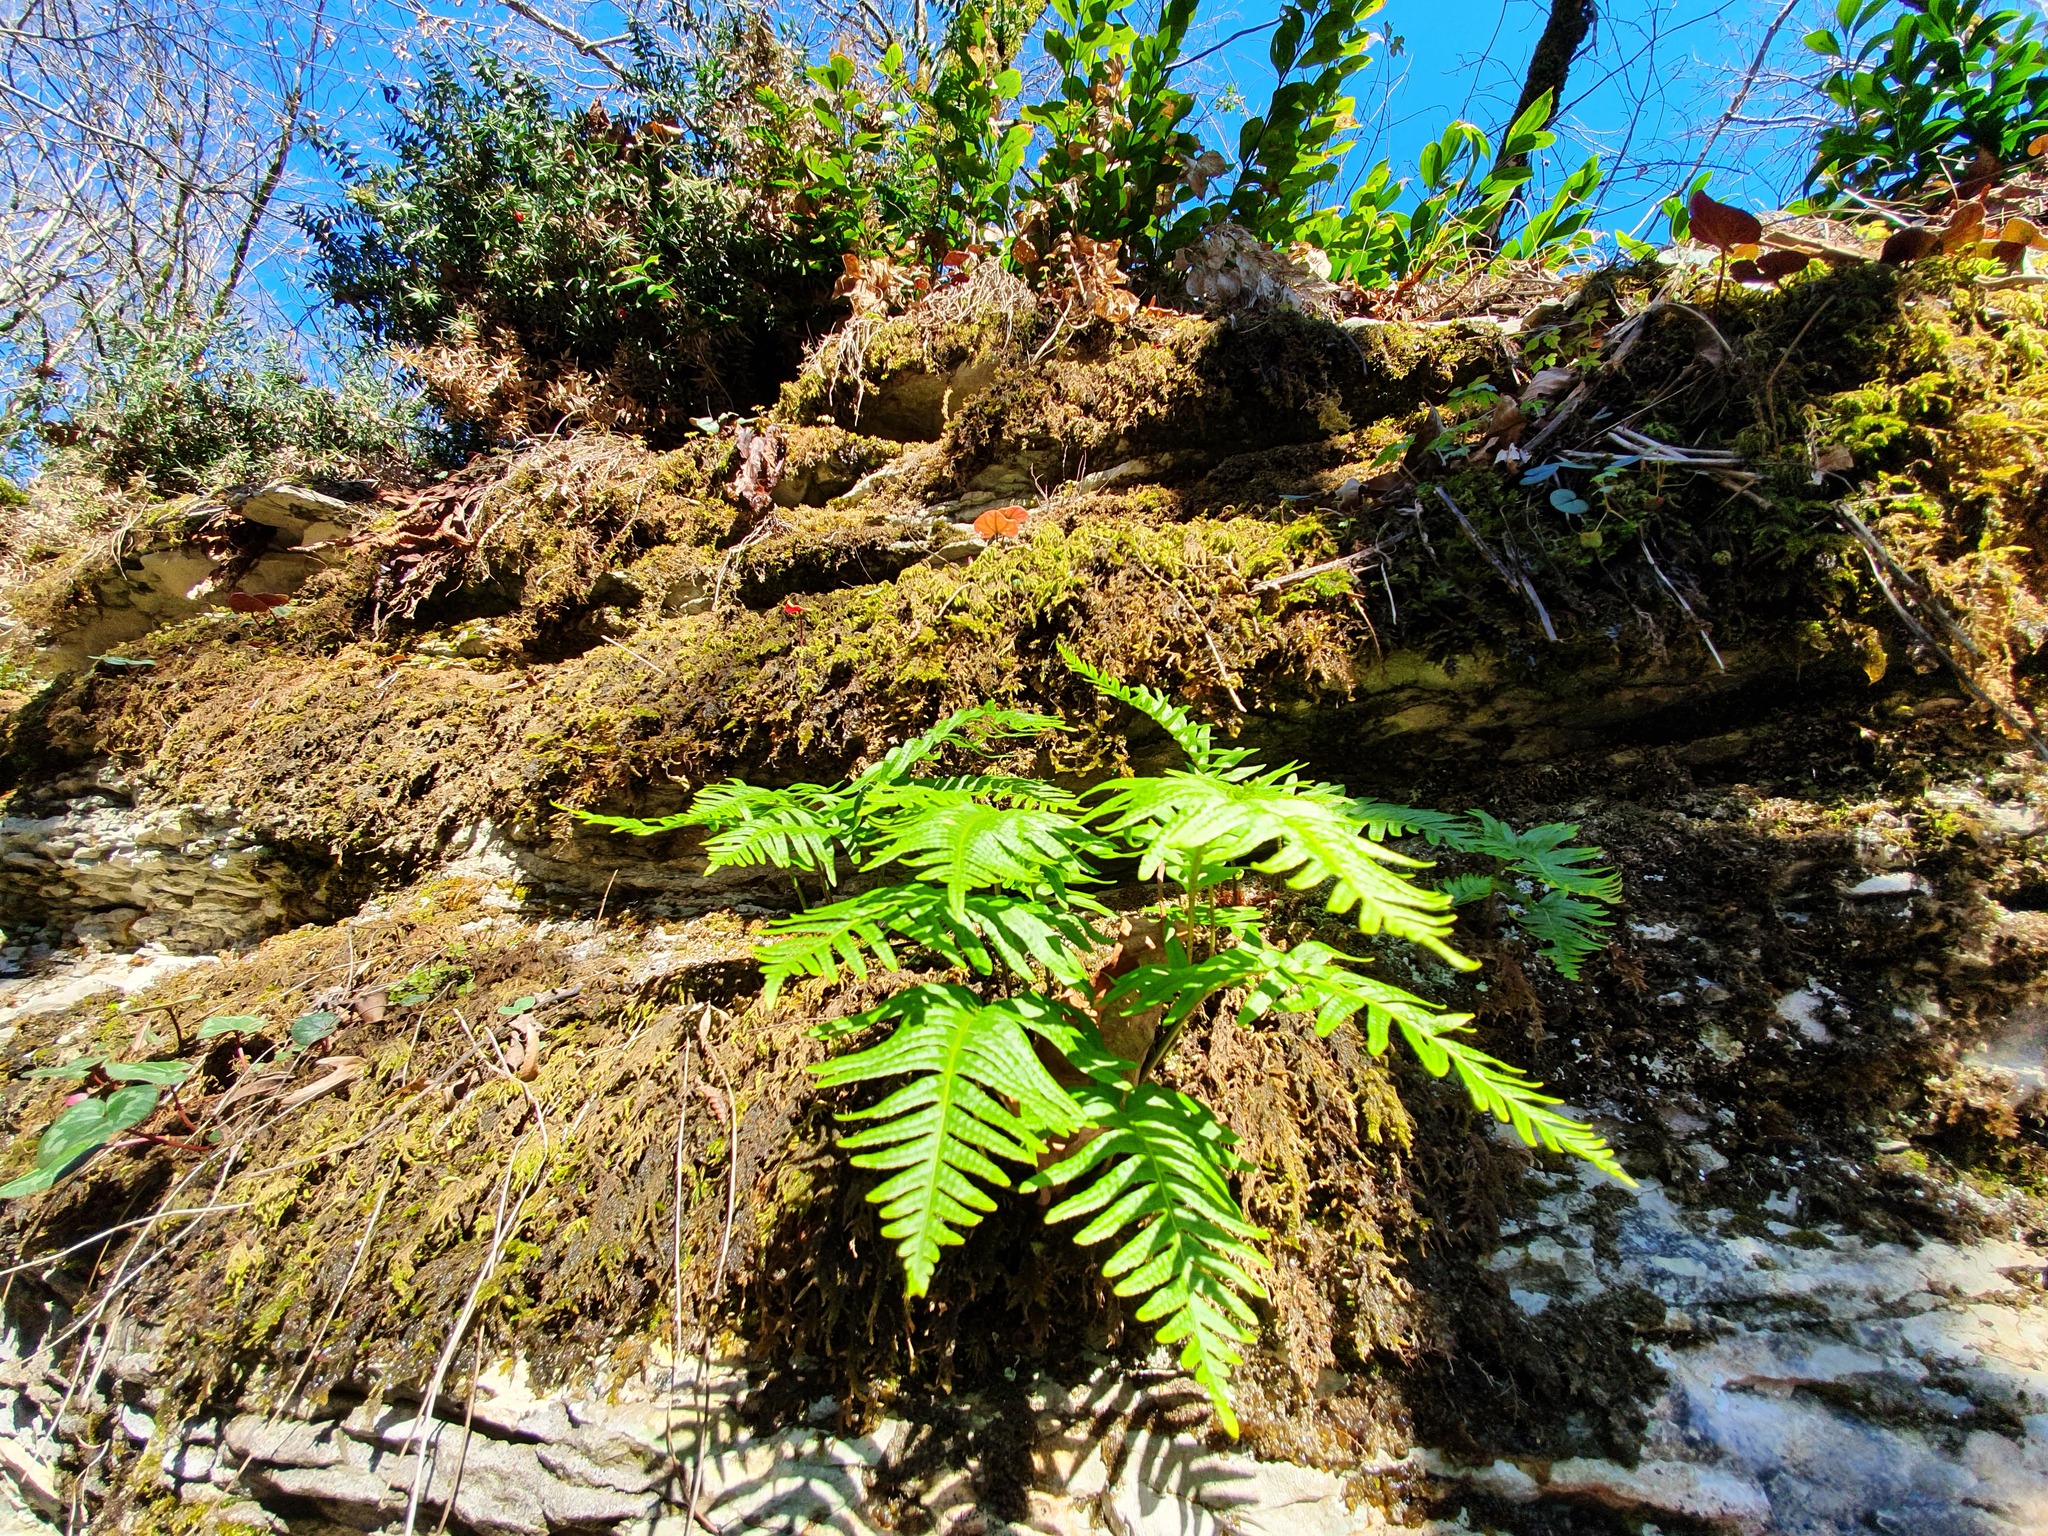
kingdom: Plantae
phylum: Tracheophyta
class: Polypodiopsida
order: Polypodiales
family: Polypodiaceae
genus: Polypodium
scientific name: Polypodium cambricum
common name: Southern polypody
